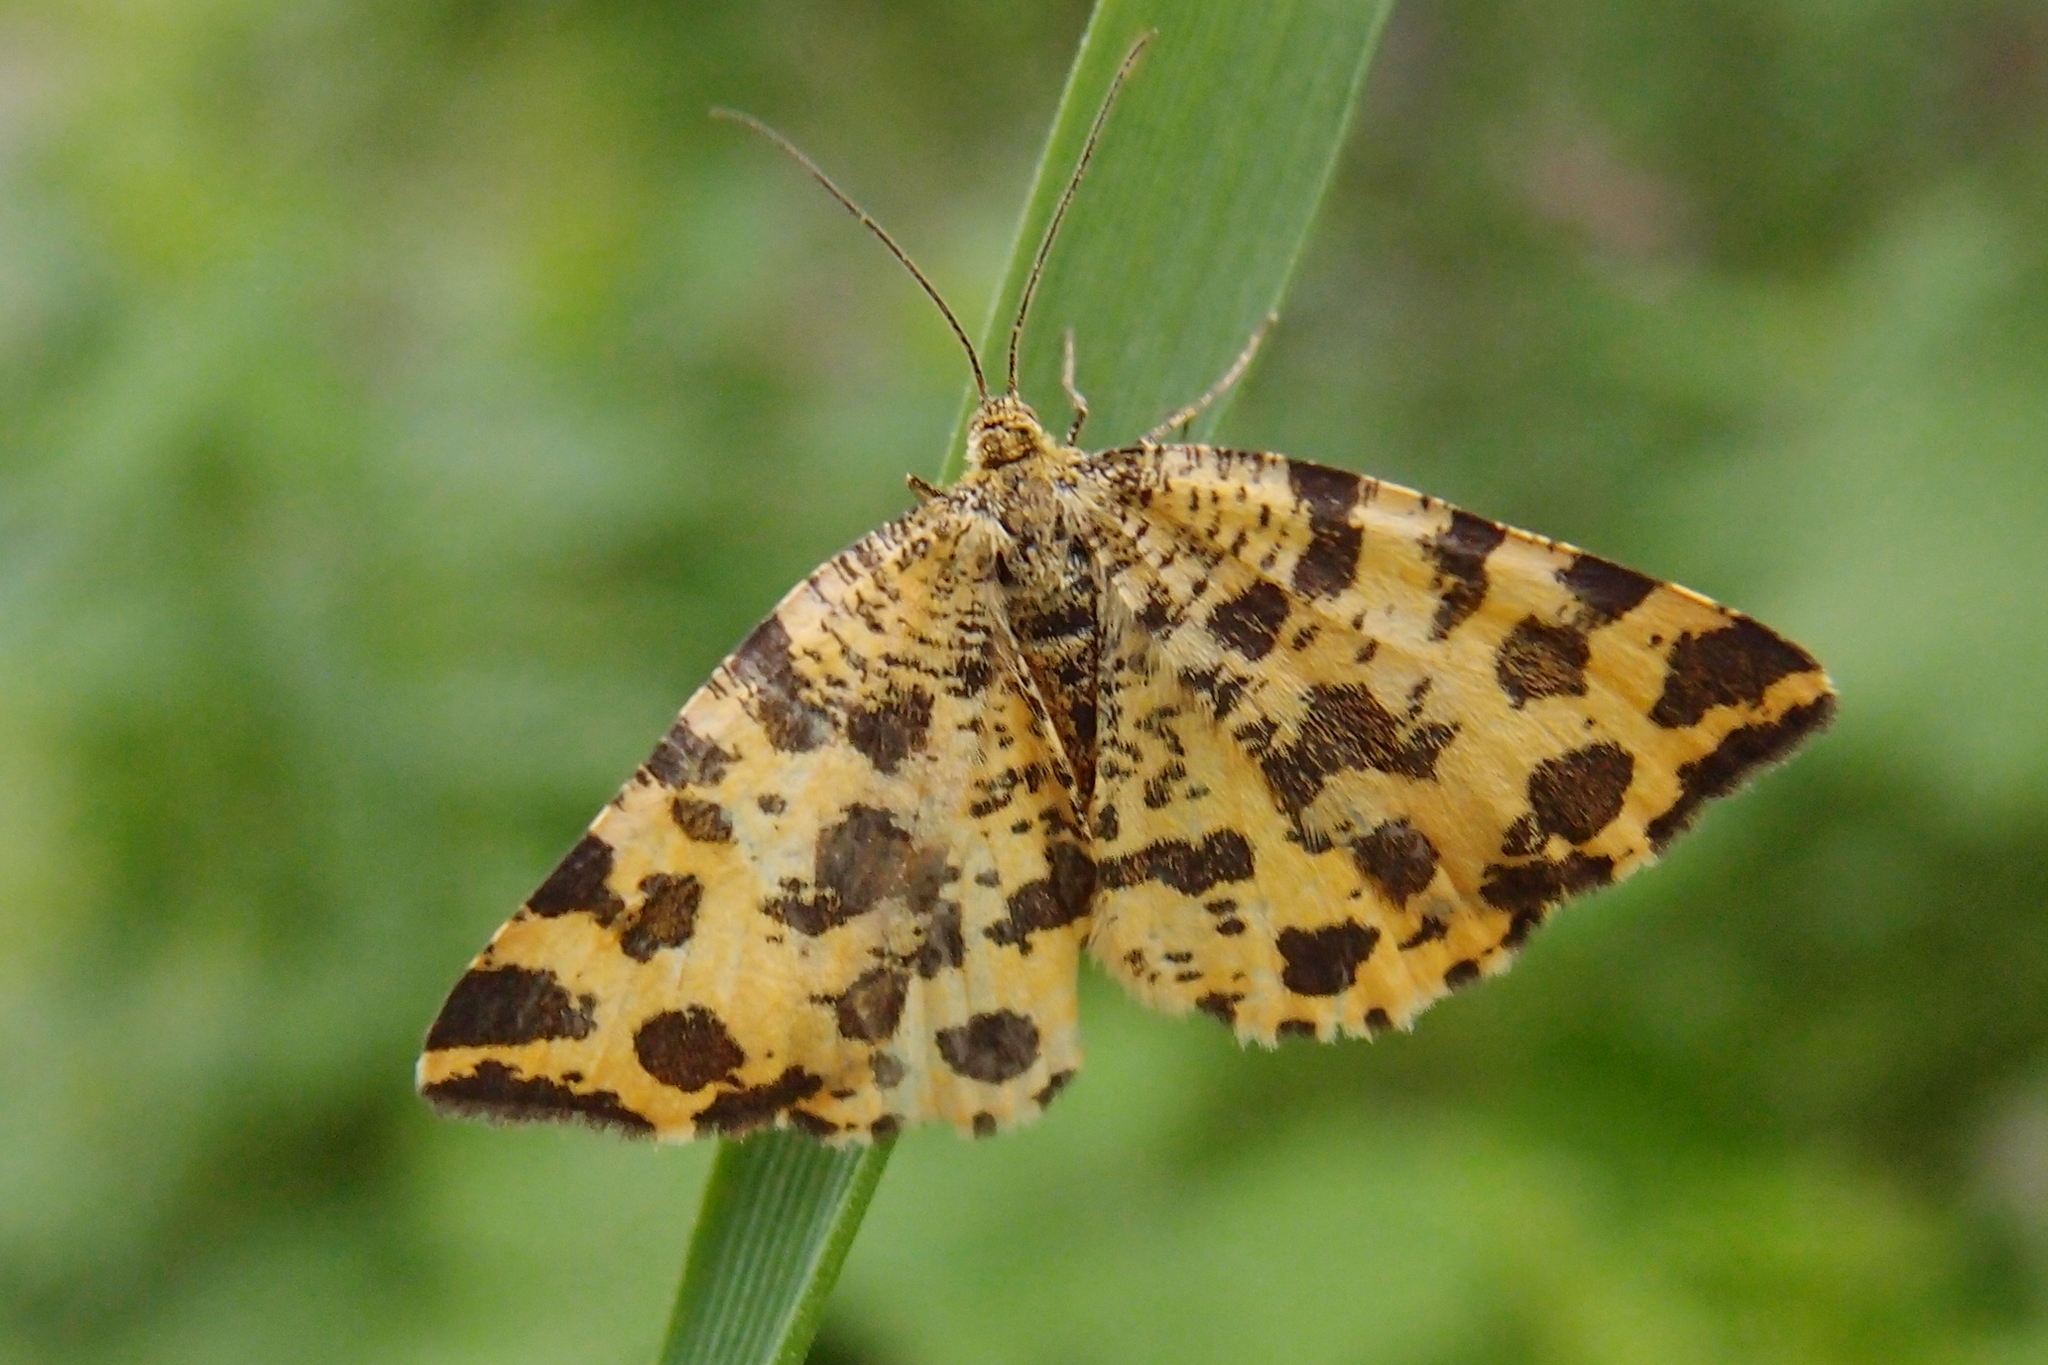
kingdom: Animalia
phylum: Arthropoda
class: Insecta
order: Lepidoptera
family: Geometridae
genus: Pseudopanthera
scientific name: Pseudopanthera macularia
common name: Speckled yellow
